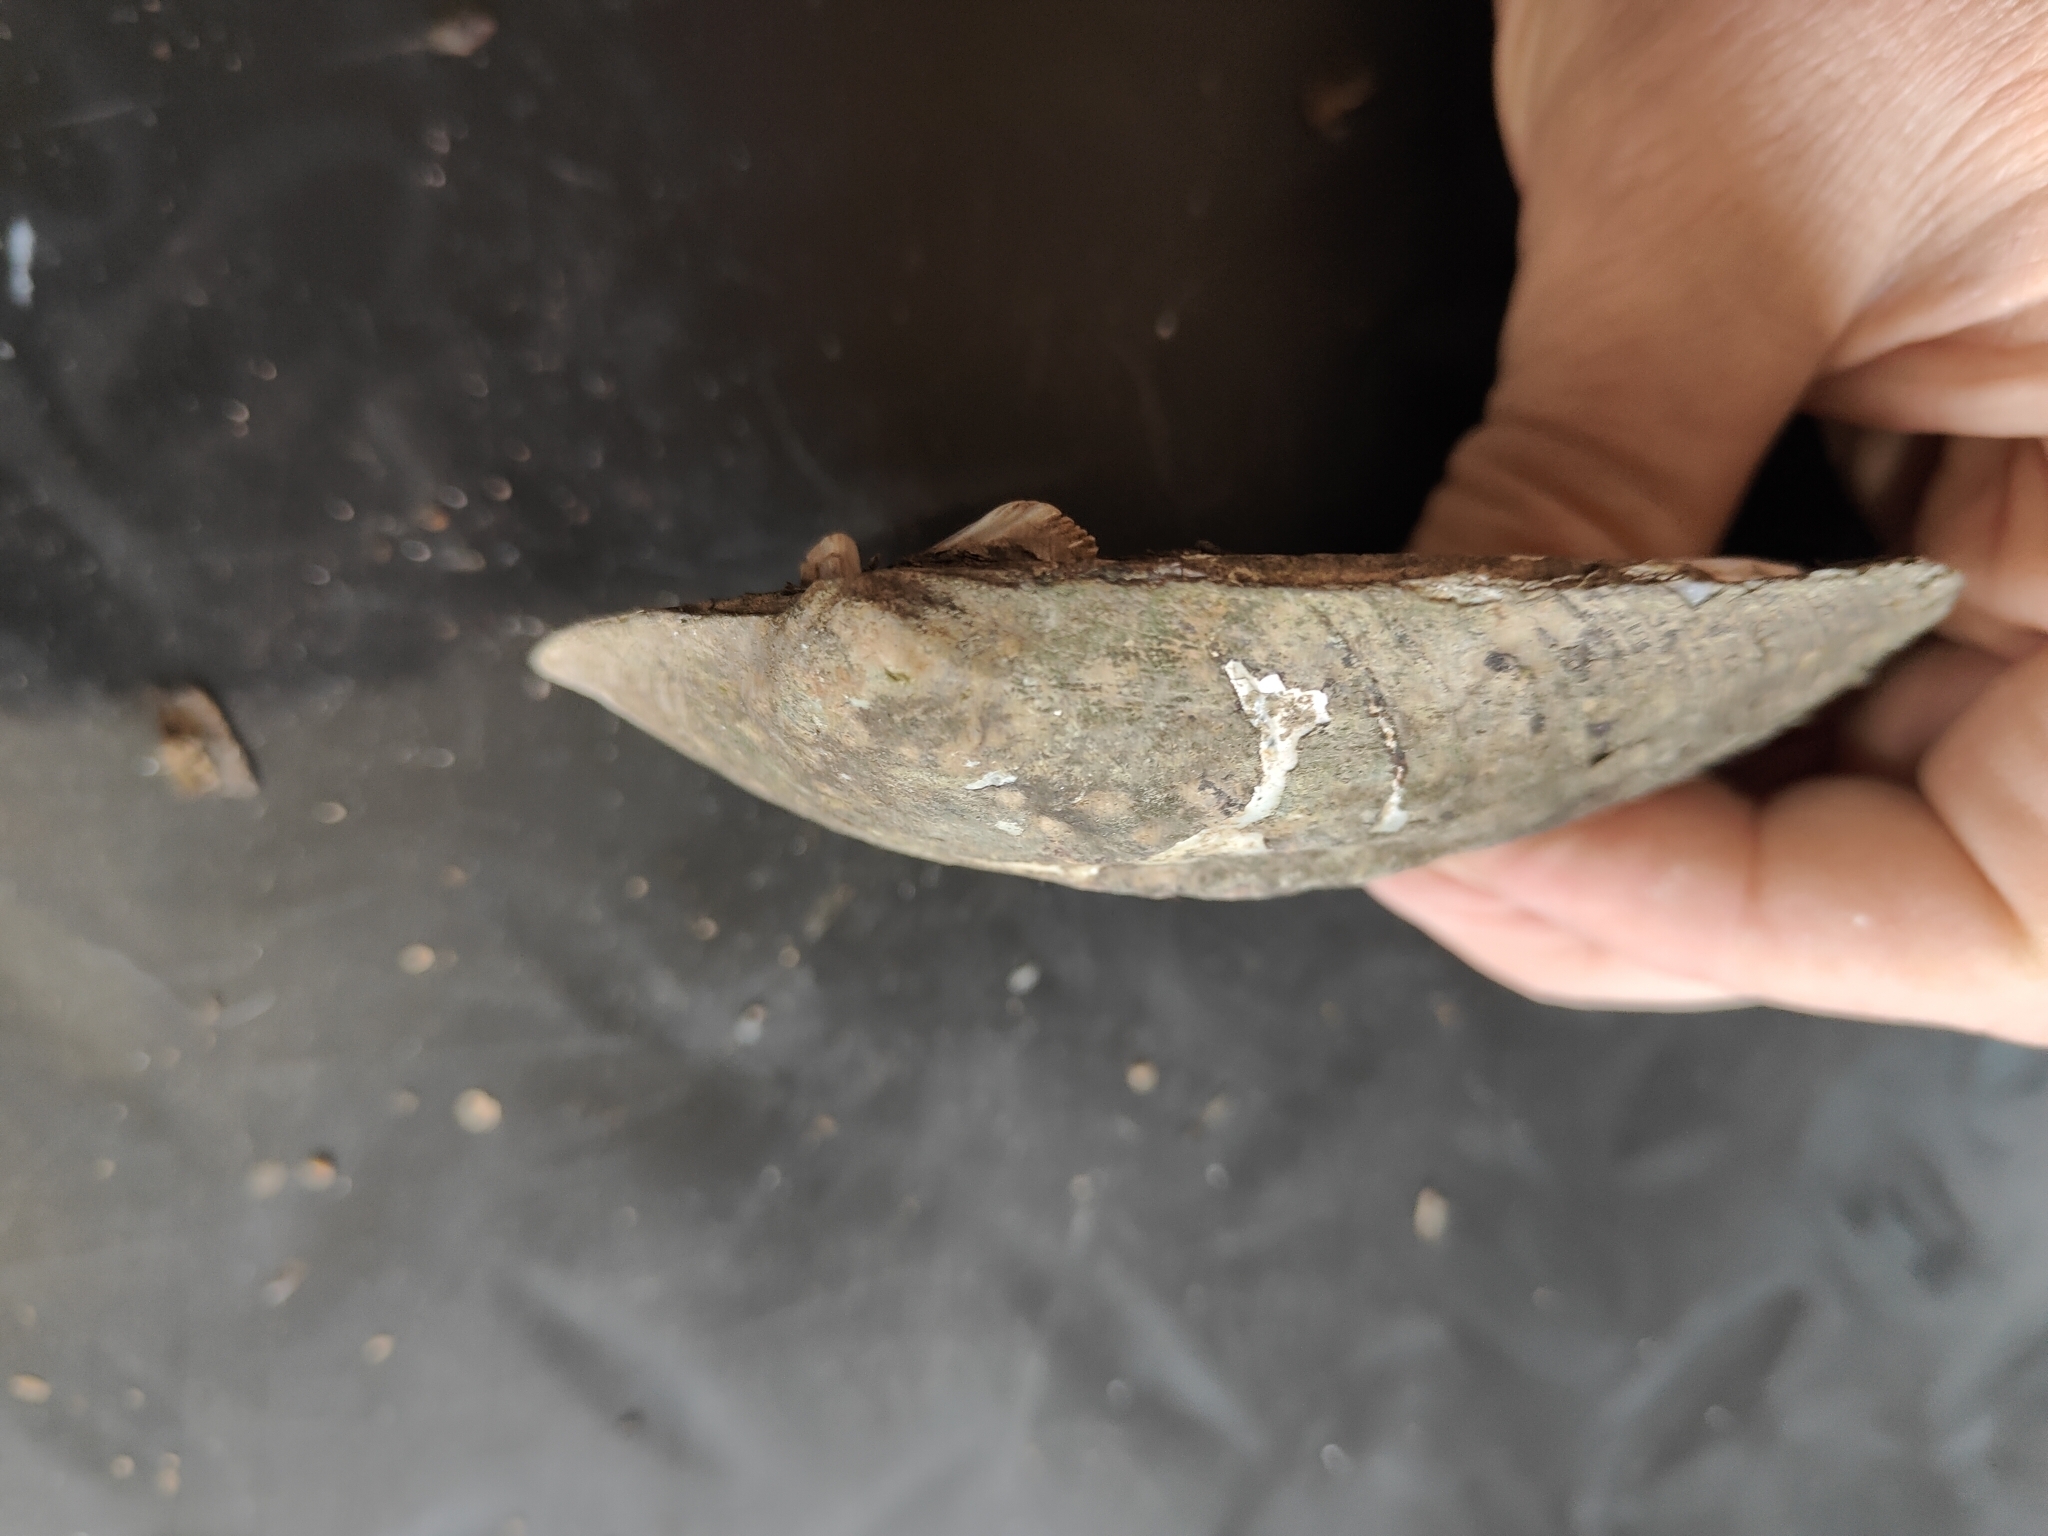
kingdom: Animalia
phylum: Mollusca
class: Bivalvia
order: Unionida
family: Unionidae
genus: Amblema
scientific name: Amblema plicata
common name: Threeridge
